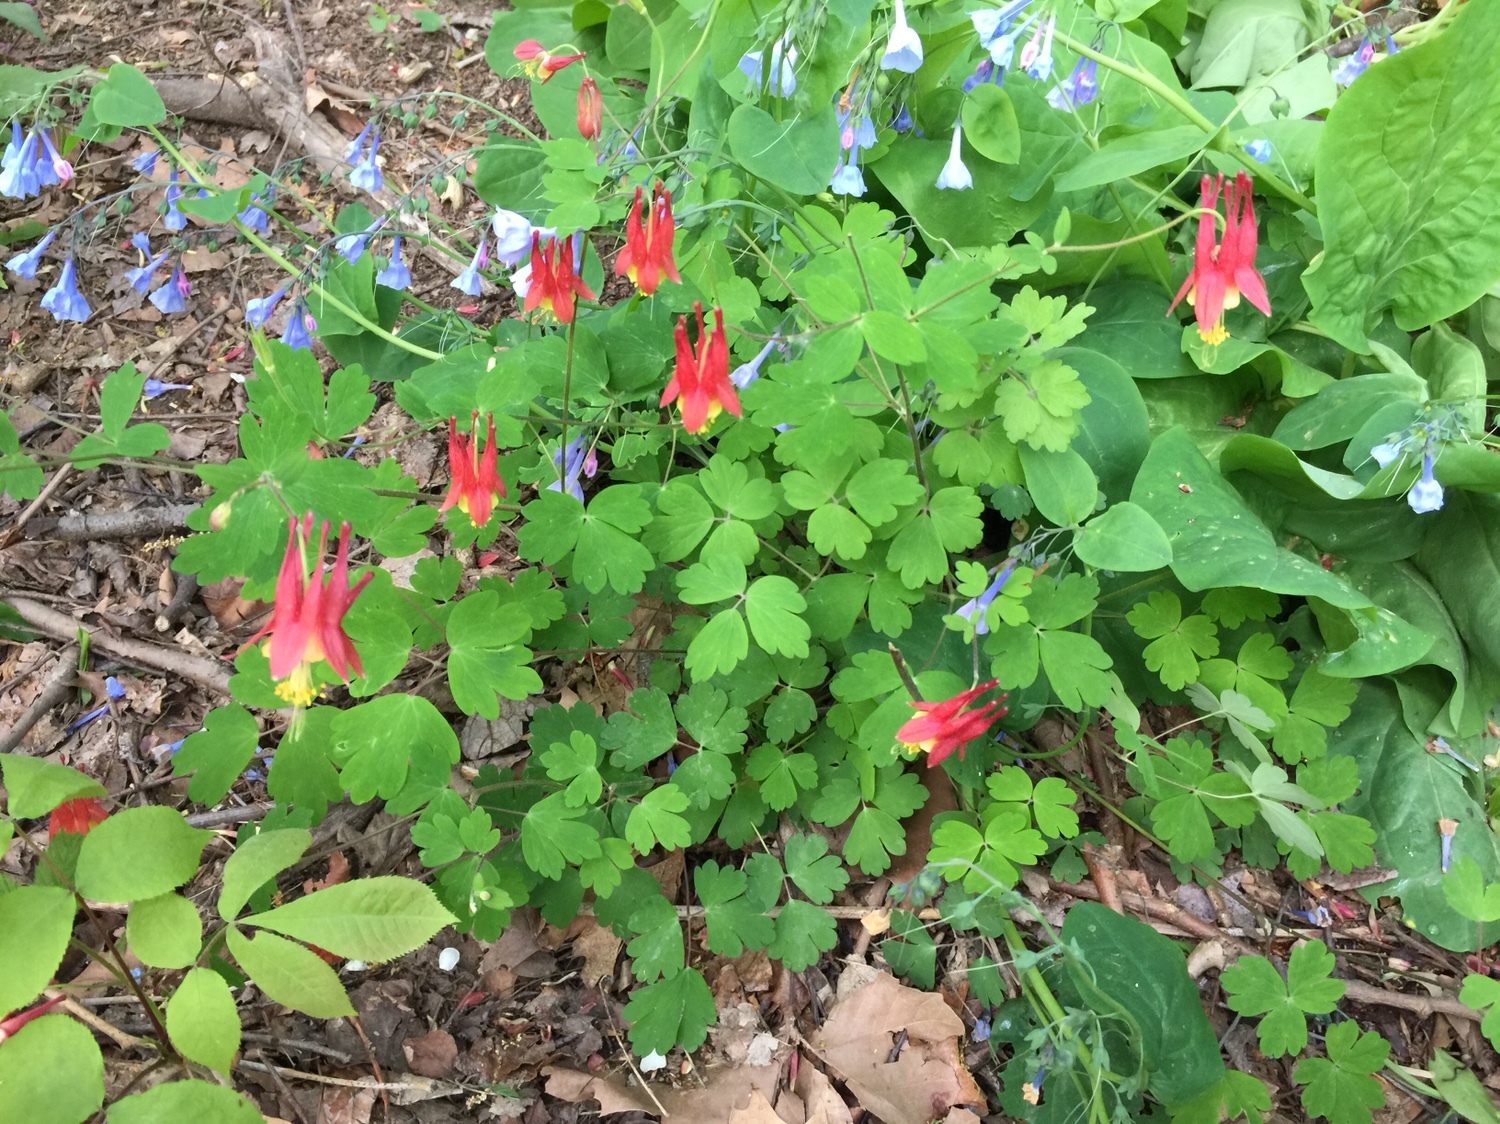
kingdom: Plantae
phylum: Tracheophyta
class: Magnoliopsida
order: Ranunculales
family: Ranunculaceae
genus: Aquilegia
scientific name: Aquilegia canadensis
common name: American columbine
